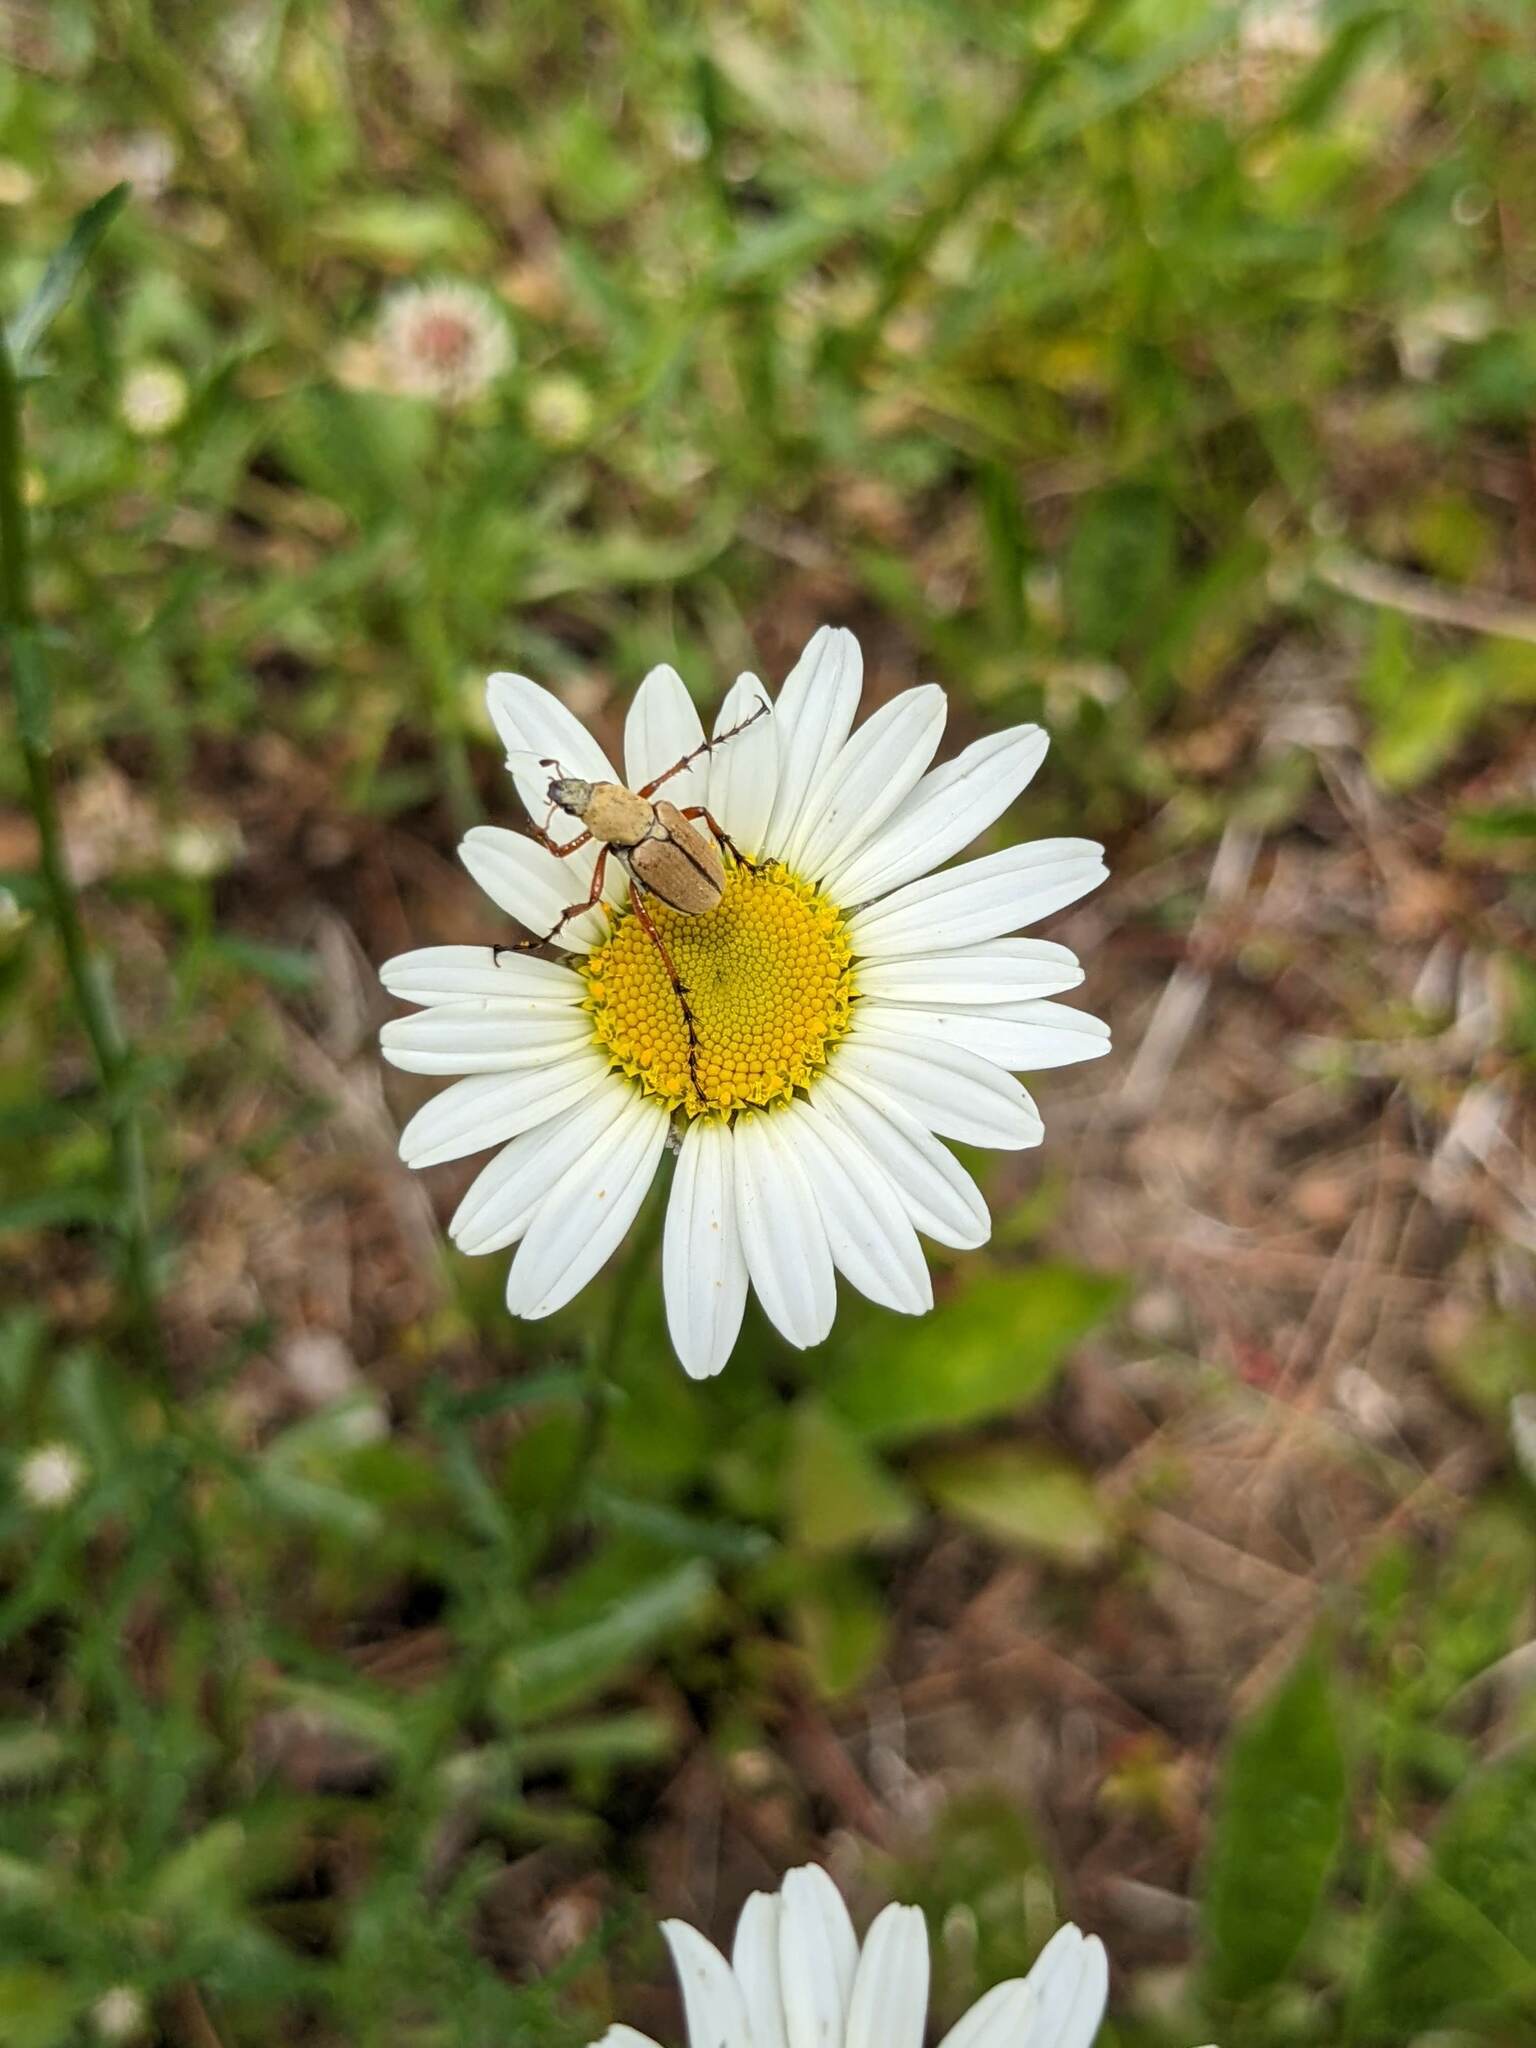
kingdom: Plantae
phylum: Tracheophyta
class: Magnoliopsida
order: Asterales
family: Asteraceae
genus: Leucanthemum
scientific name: Leucanthemum vulgare
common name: Oxeye daisy
